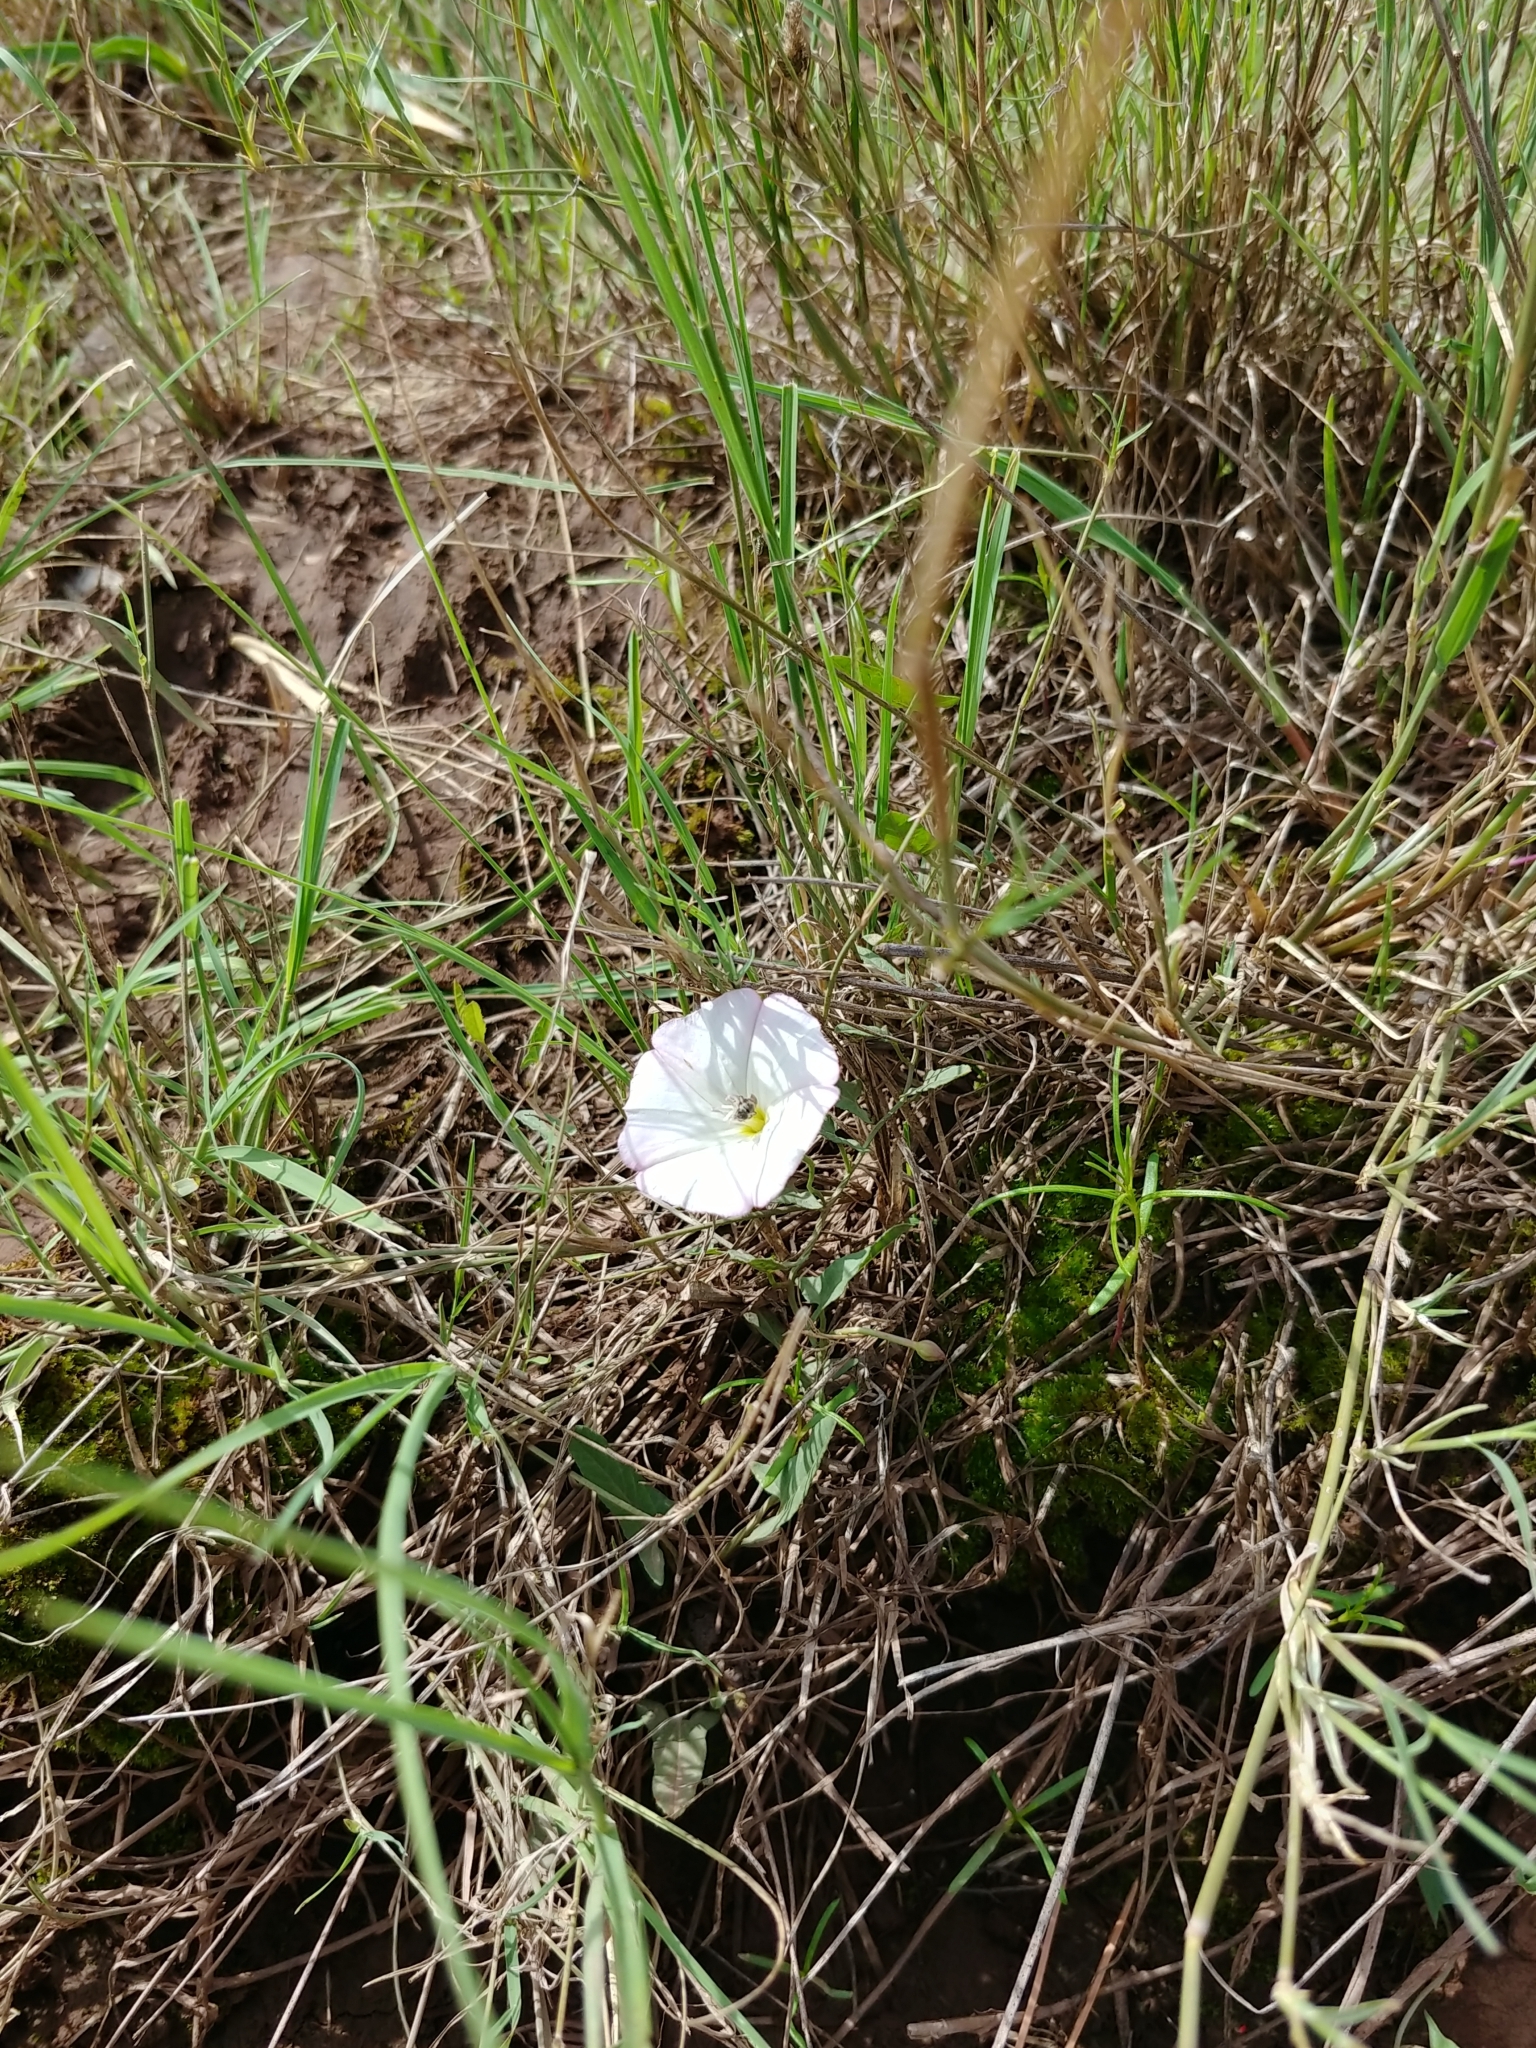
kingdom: Plantae
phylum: Tracheophyta
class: Magnoliopsida
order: Solanales
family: Convolvulaceae
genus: Convolvulus
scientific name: Convolvulus arvensis
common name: Field bindweed
